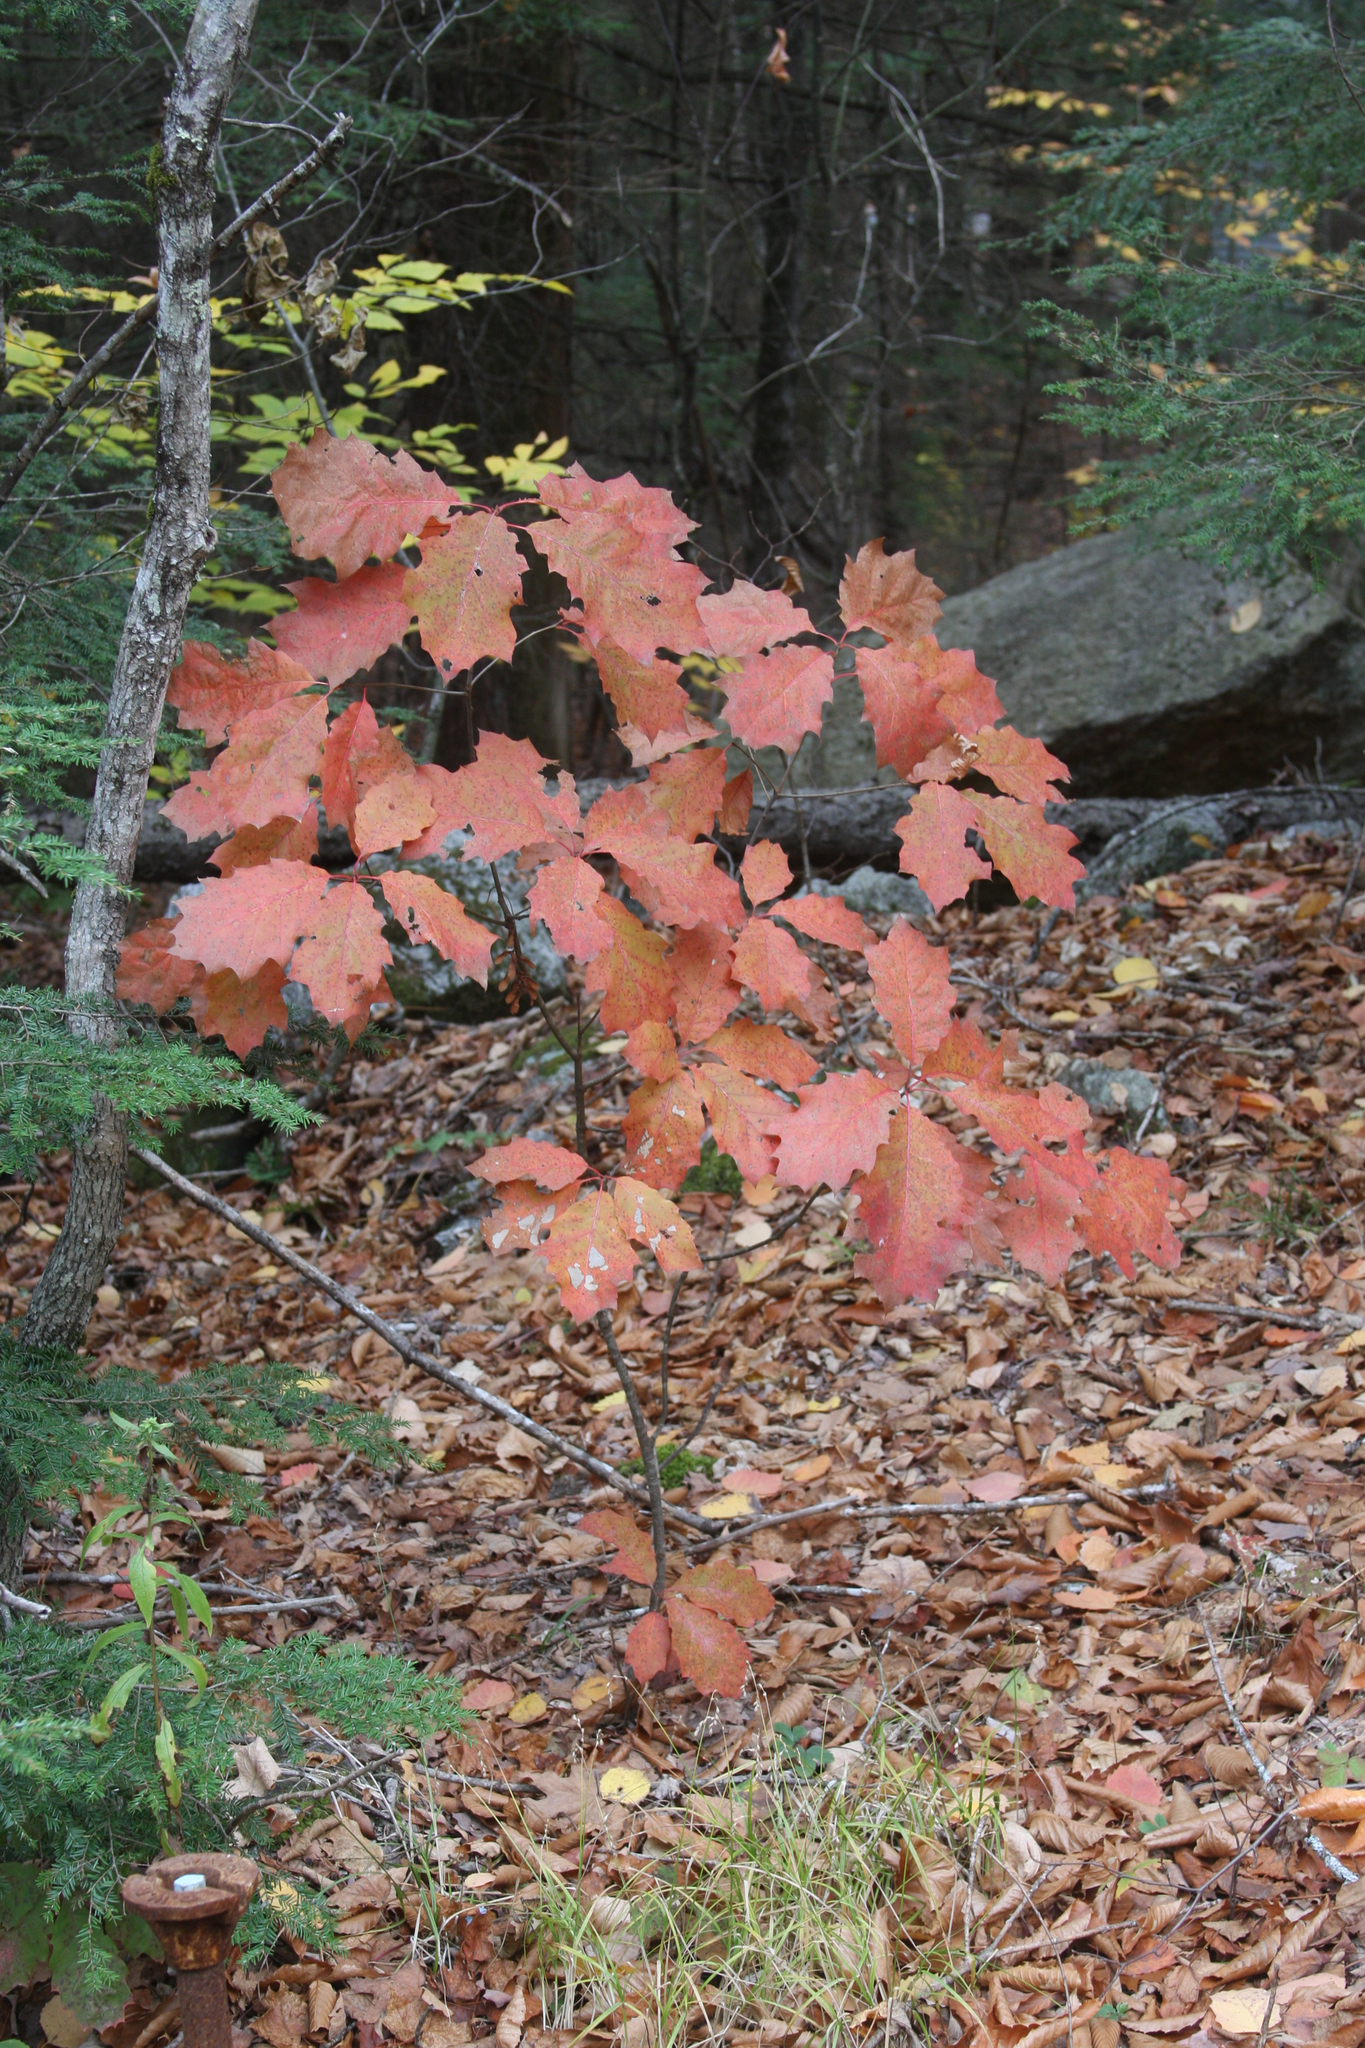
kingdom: Plantae
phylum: Tracheophyta
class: Magnoliopsida
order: Fagales
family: Fagaceae
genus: Quercus
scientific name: Quercus rubra
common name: Red oak
